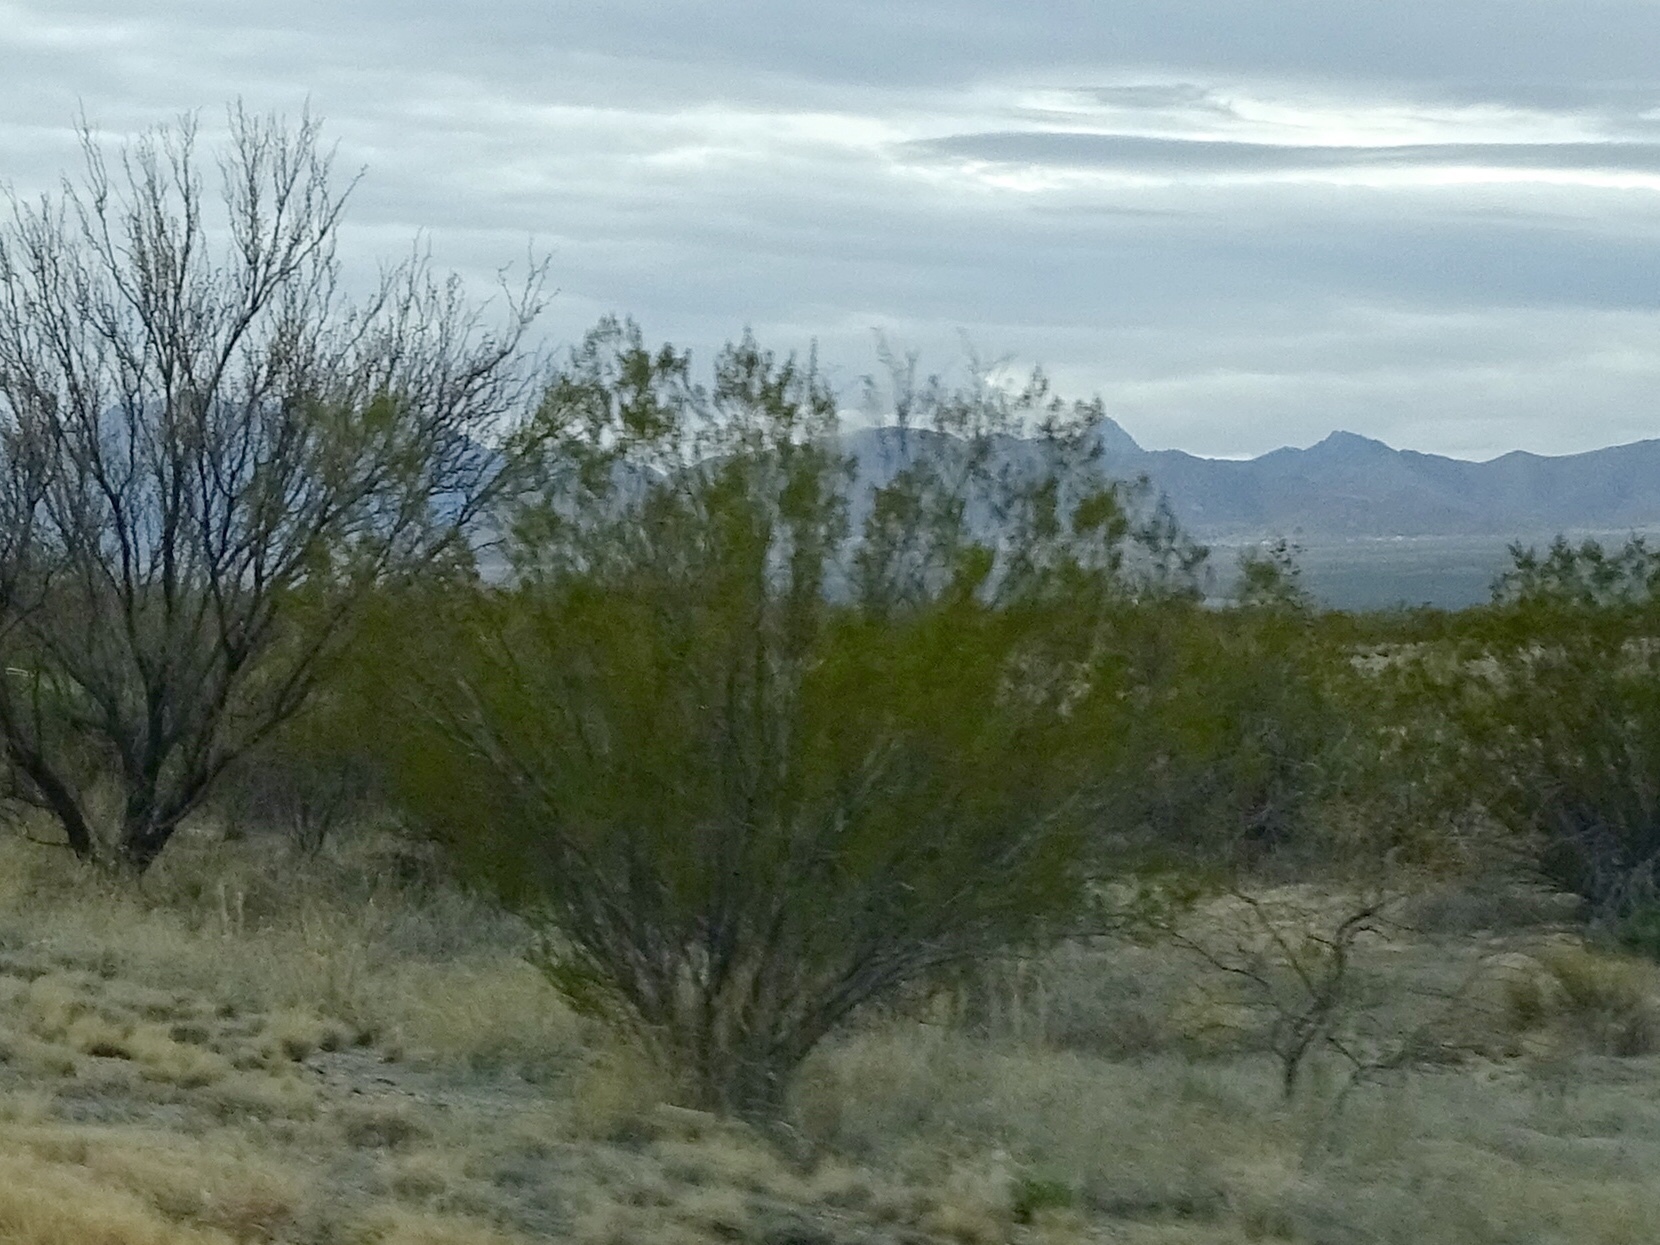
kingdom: Plantae
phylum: Tracheophyta
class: Magnoliopsida
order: Zygophyllales
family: Zygophyllaceae
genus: Larrea
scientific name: Larrea tridentata
